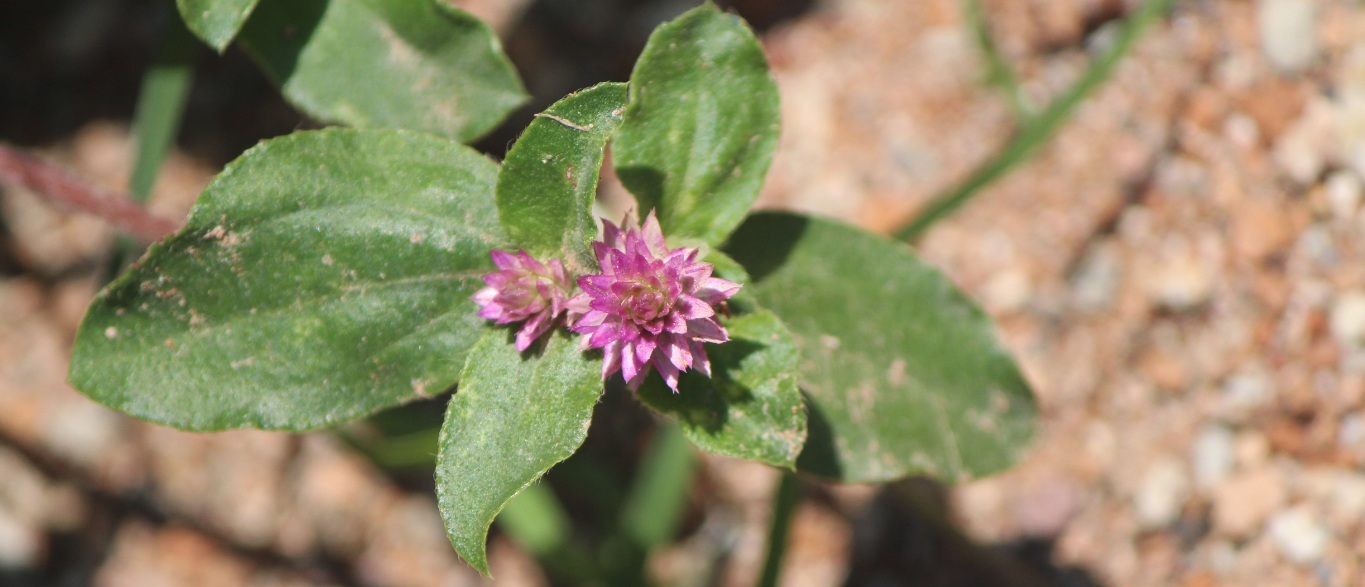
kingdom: Plantae
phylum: Tracheophyta
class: Magnoliopsida
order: Caryophyllales
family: Amaranthaceae
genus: Gomphrena
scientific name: Gomphrena serrata
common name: Arrasa con todo
